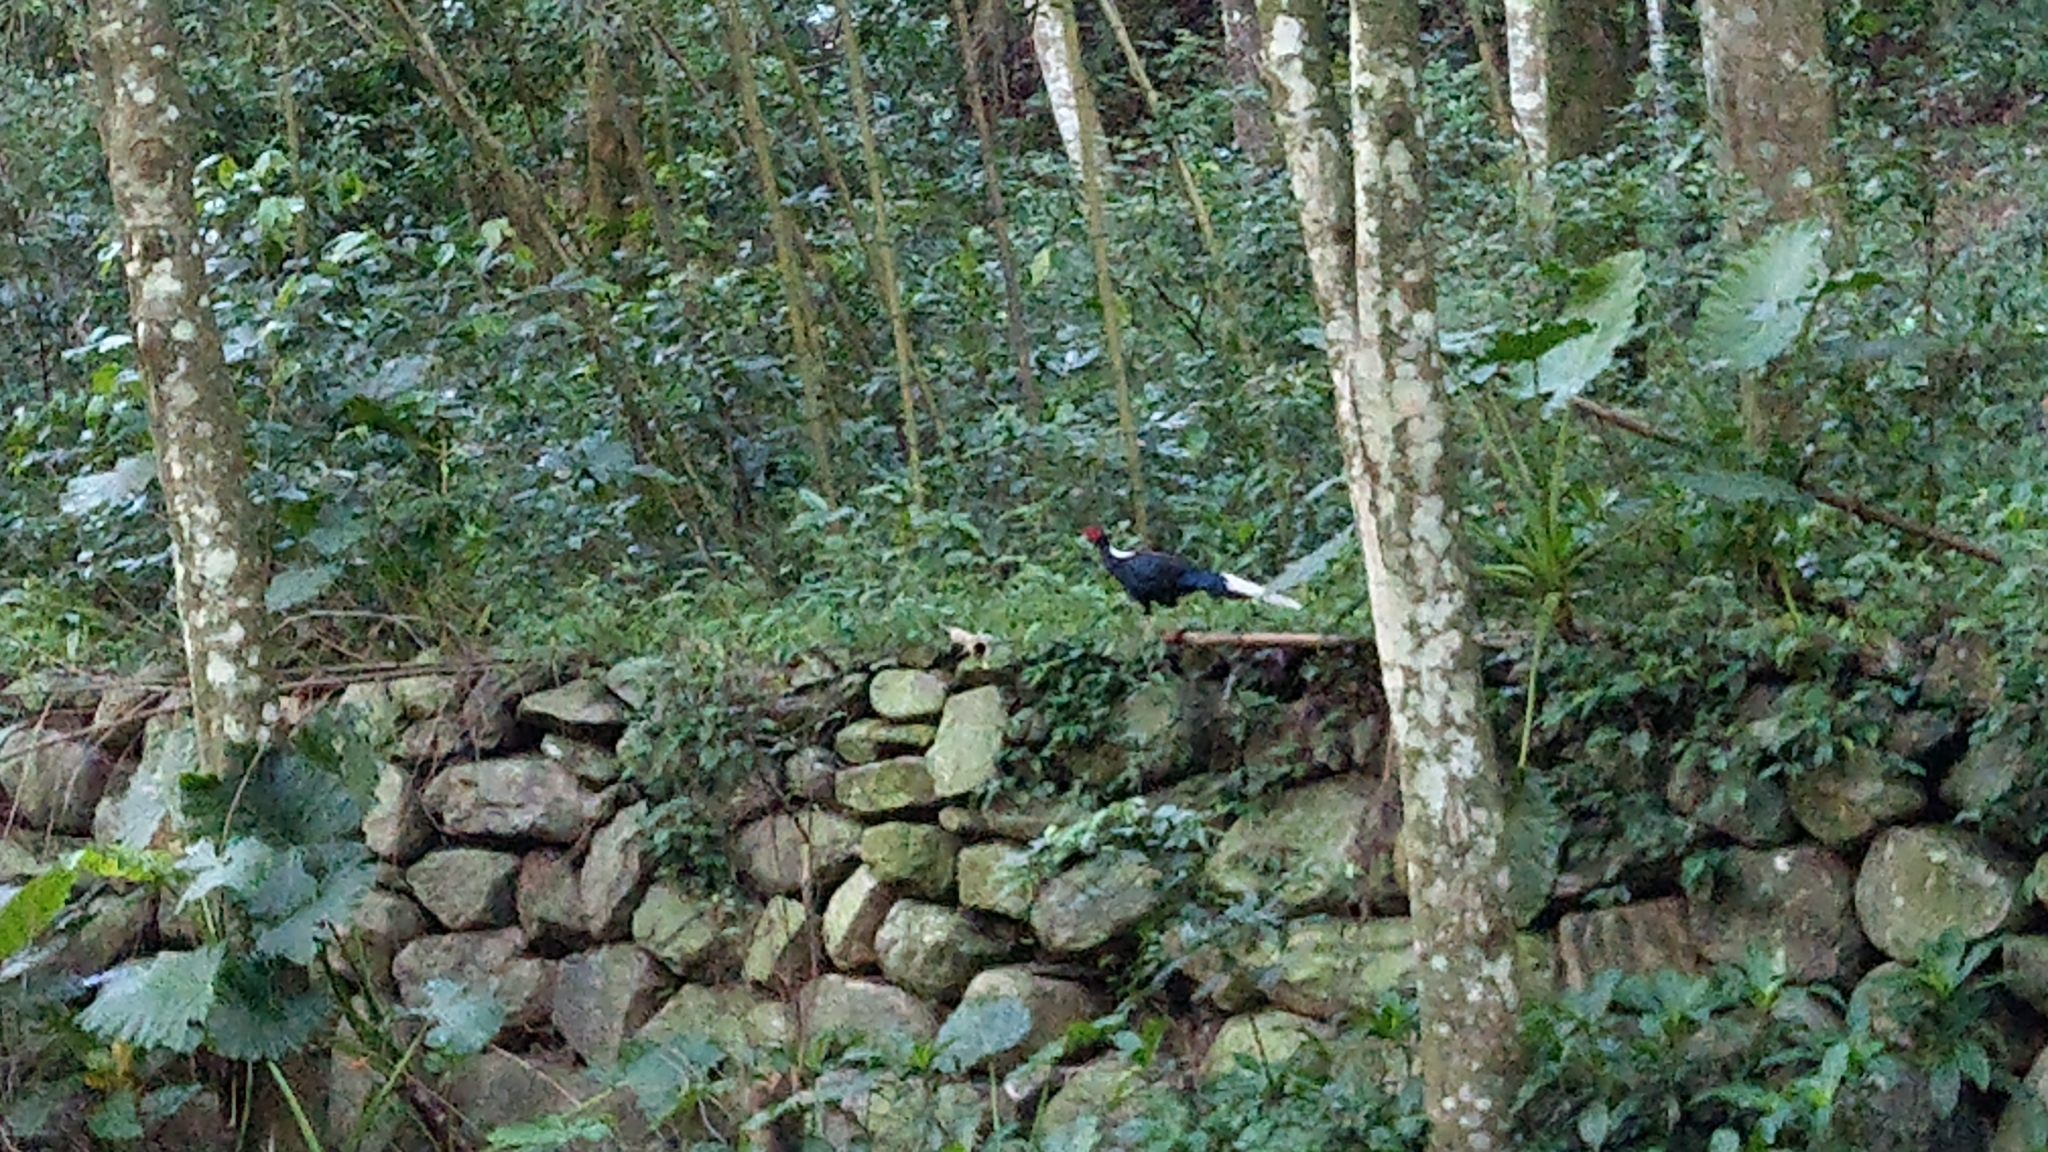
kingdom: Animalia
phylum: Chordata
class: Aves
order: Galliformes
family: Phasianidae
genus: Lophura
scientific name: Lophura swinhoii
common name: Swinhoe's pheasant
